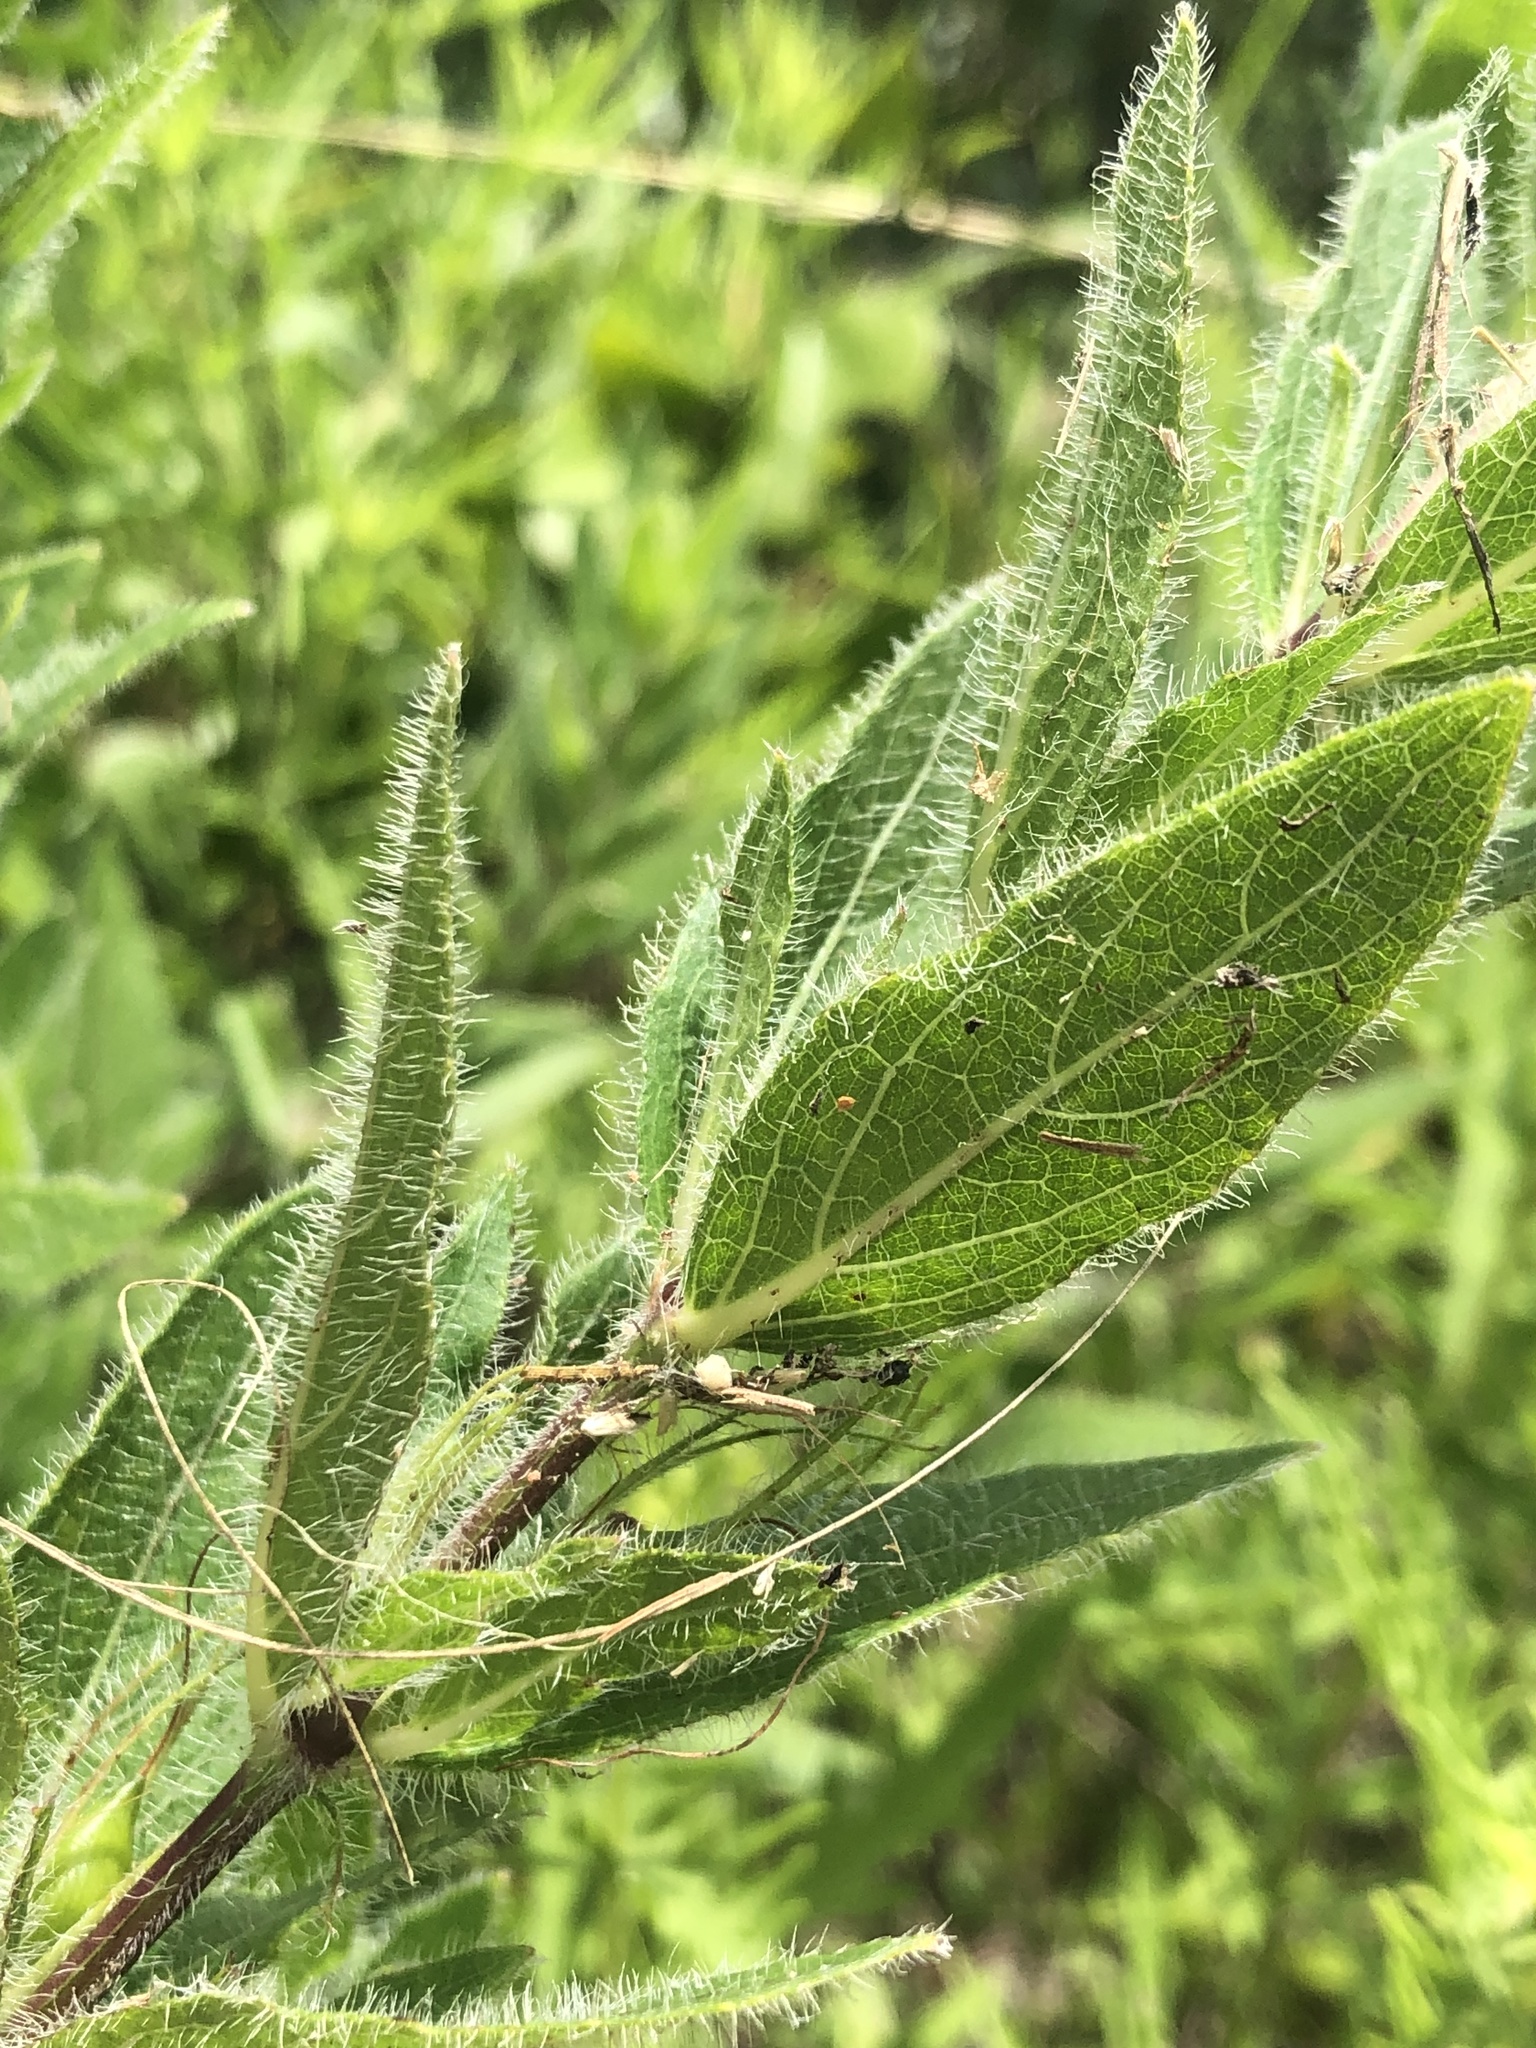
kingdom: Plantae
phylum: Tracheophyta
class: Magnoliopsida
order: Lamiales
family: Acanthaceae
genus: Ruellia
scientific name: Ruellia humilis
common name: Fringe-leaf ruellia
